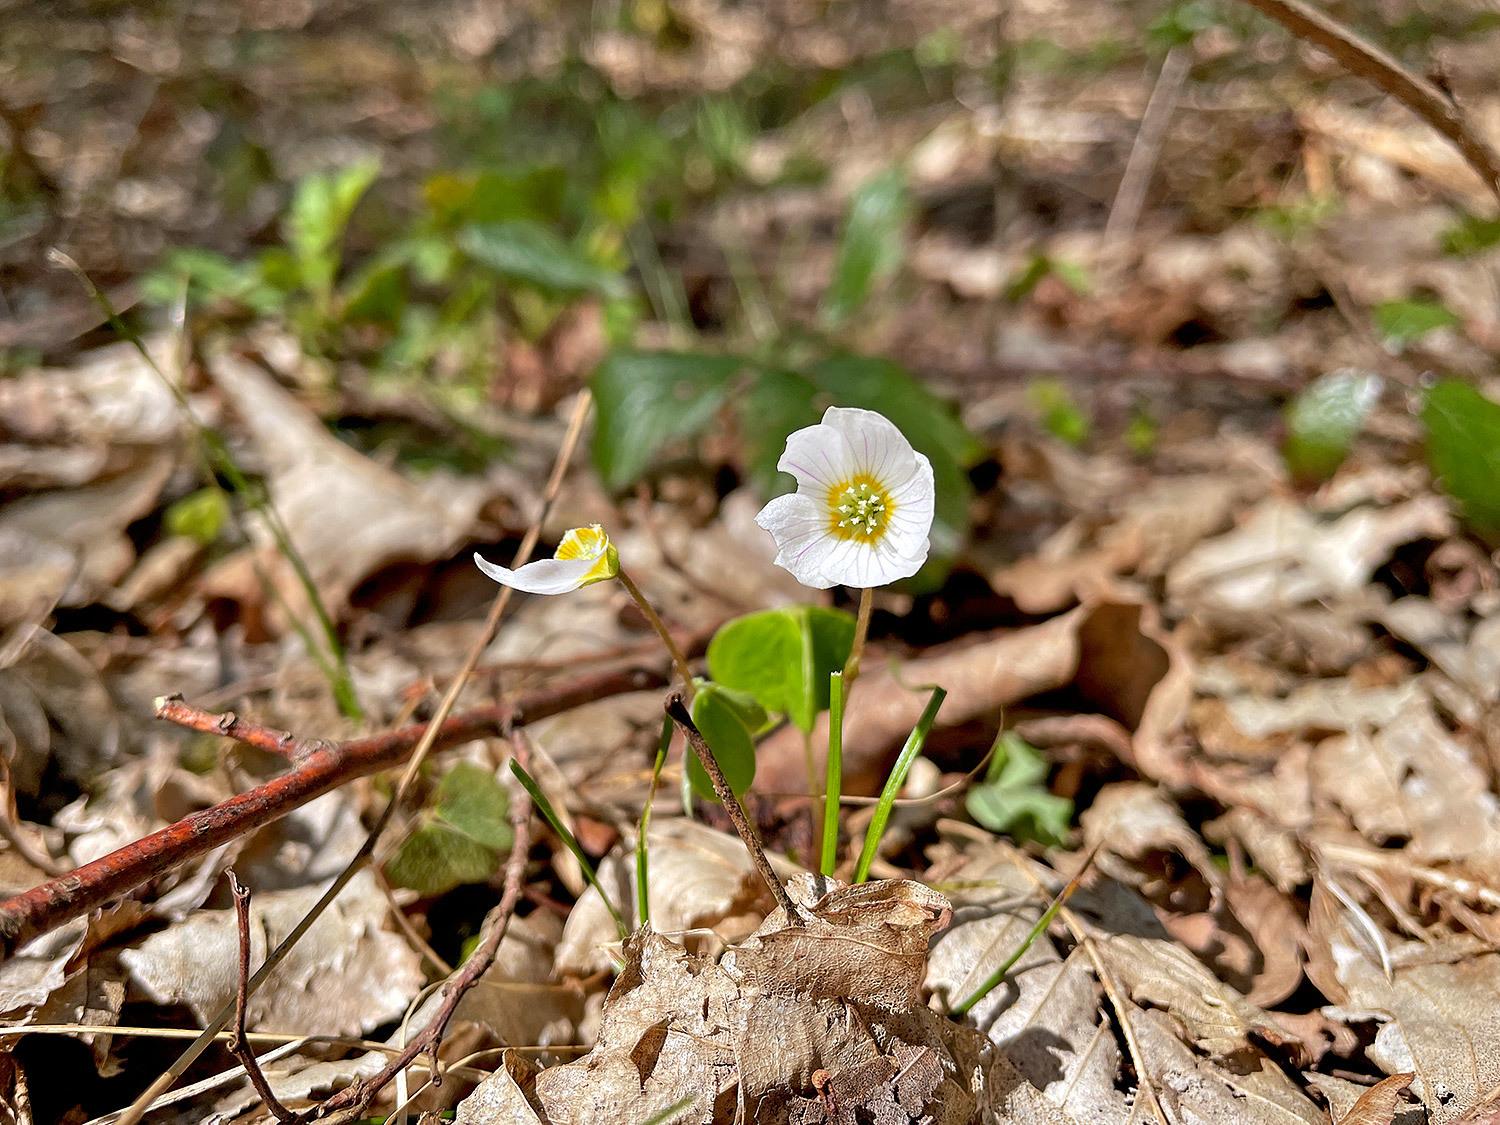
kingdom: Plantae
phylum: Tracheophyta
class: Magnoliopsida
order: Oxalidales
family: Oxalidaceae
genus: Oxalis
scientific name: Oxalis acetosella
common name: Wood-sorrel
